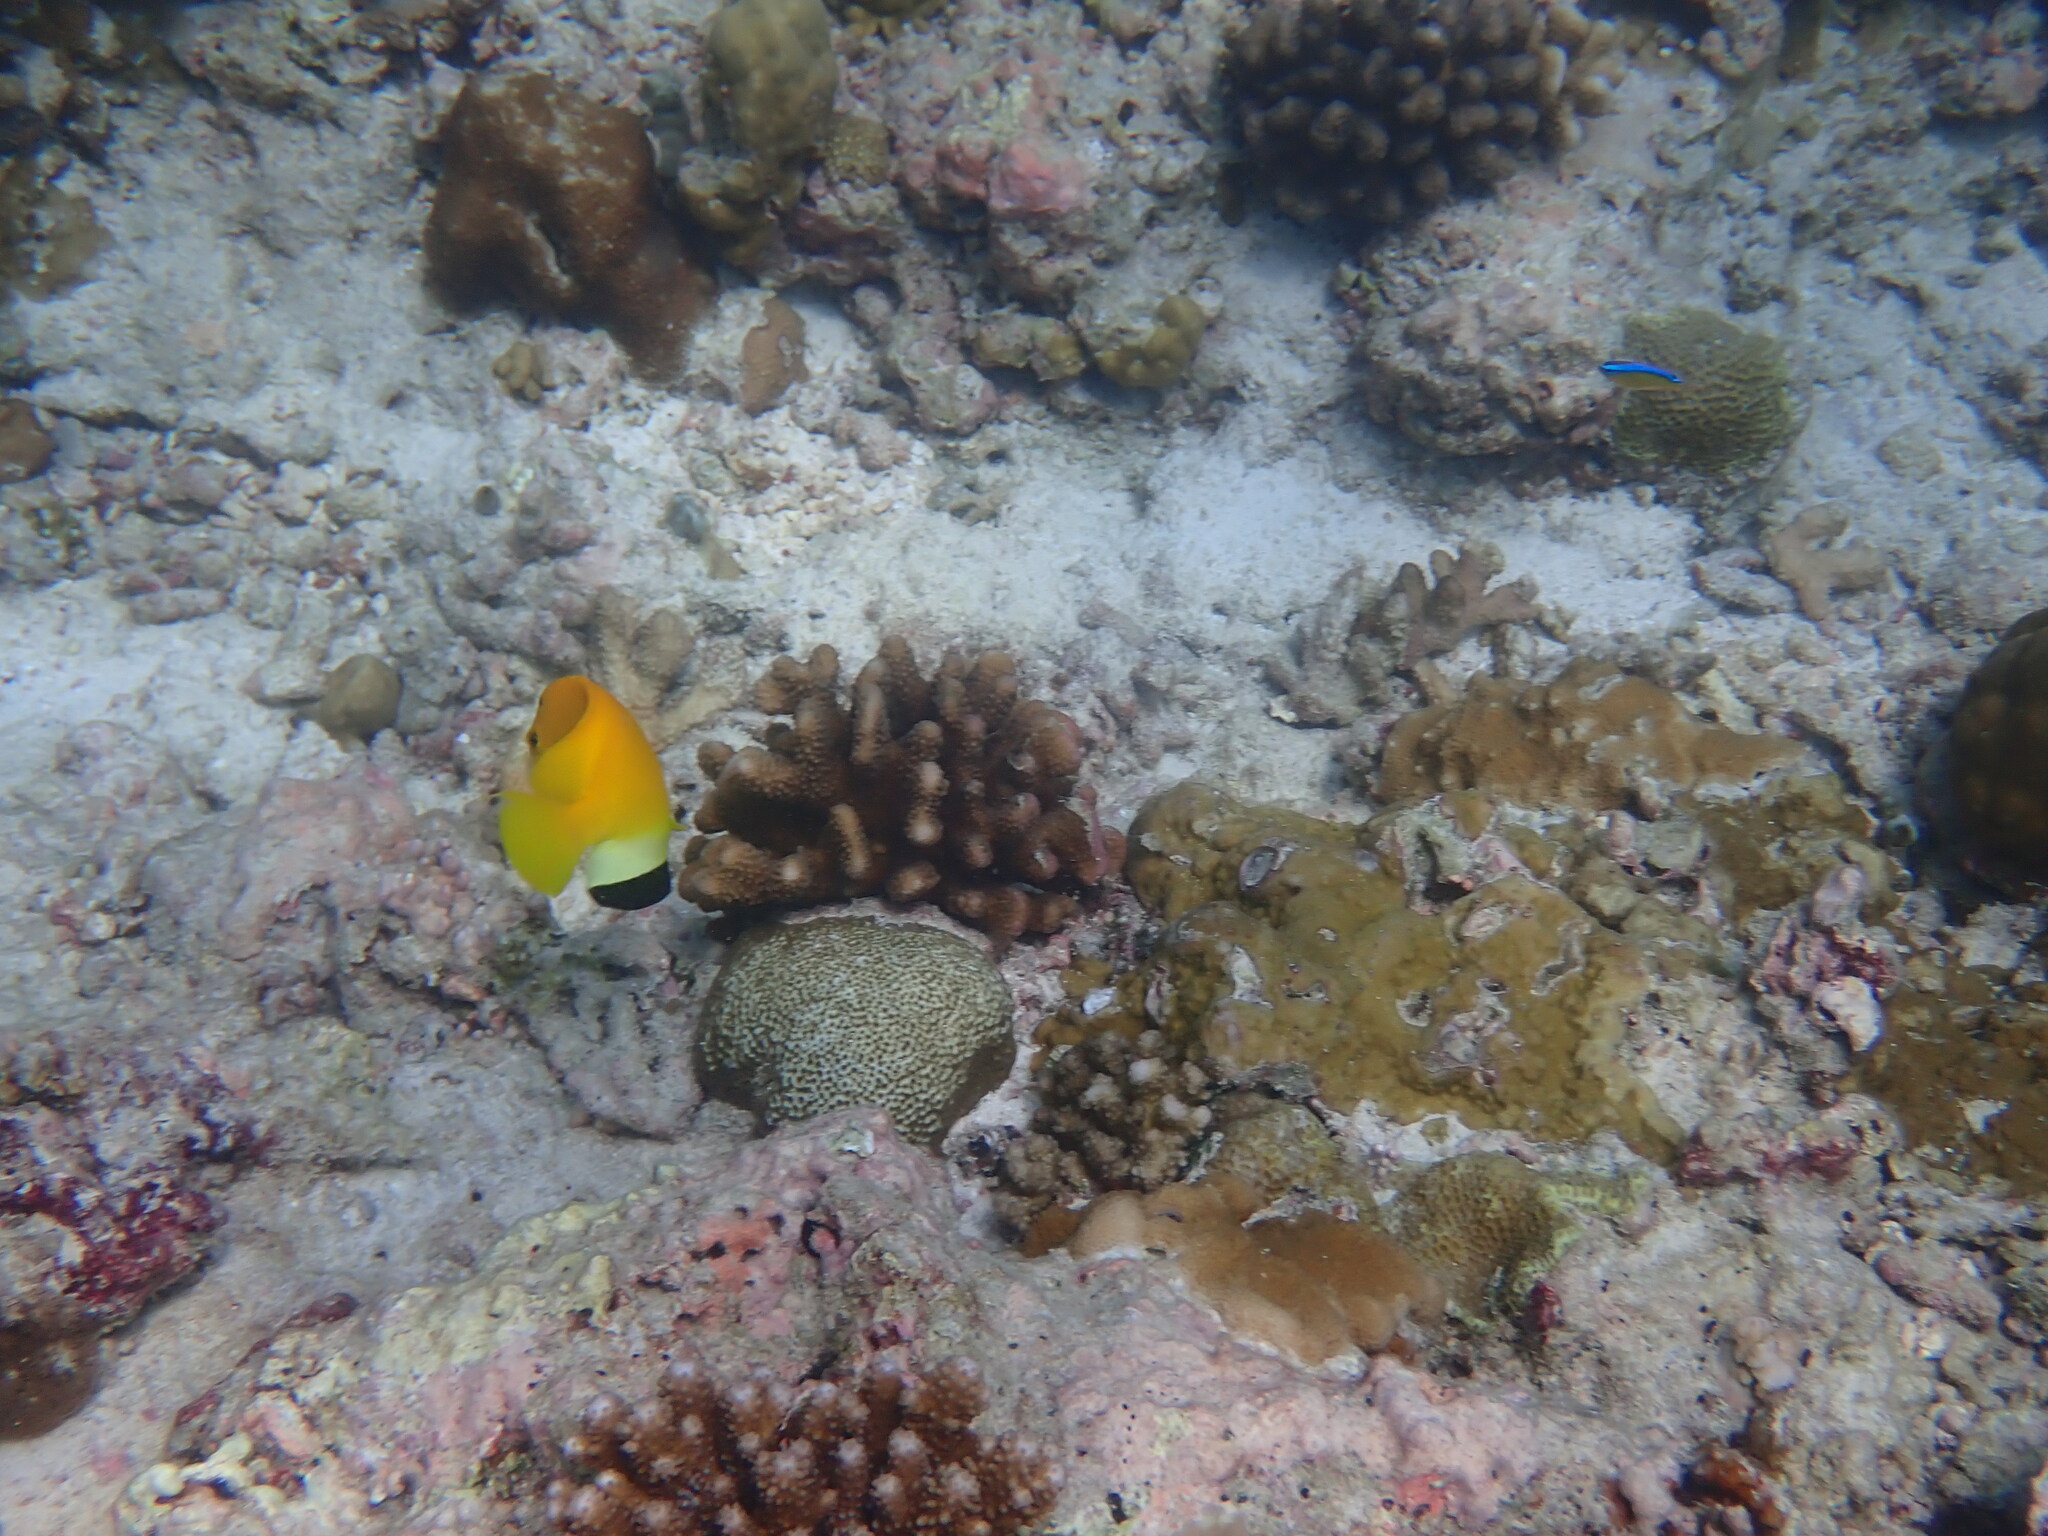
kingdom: Animalia
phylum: Chordata
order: Perciformes
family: Pomacanthidae
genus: Apolemichthys
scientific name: Apolemichthys trimaculatus
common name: Threespot angelfish
